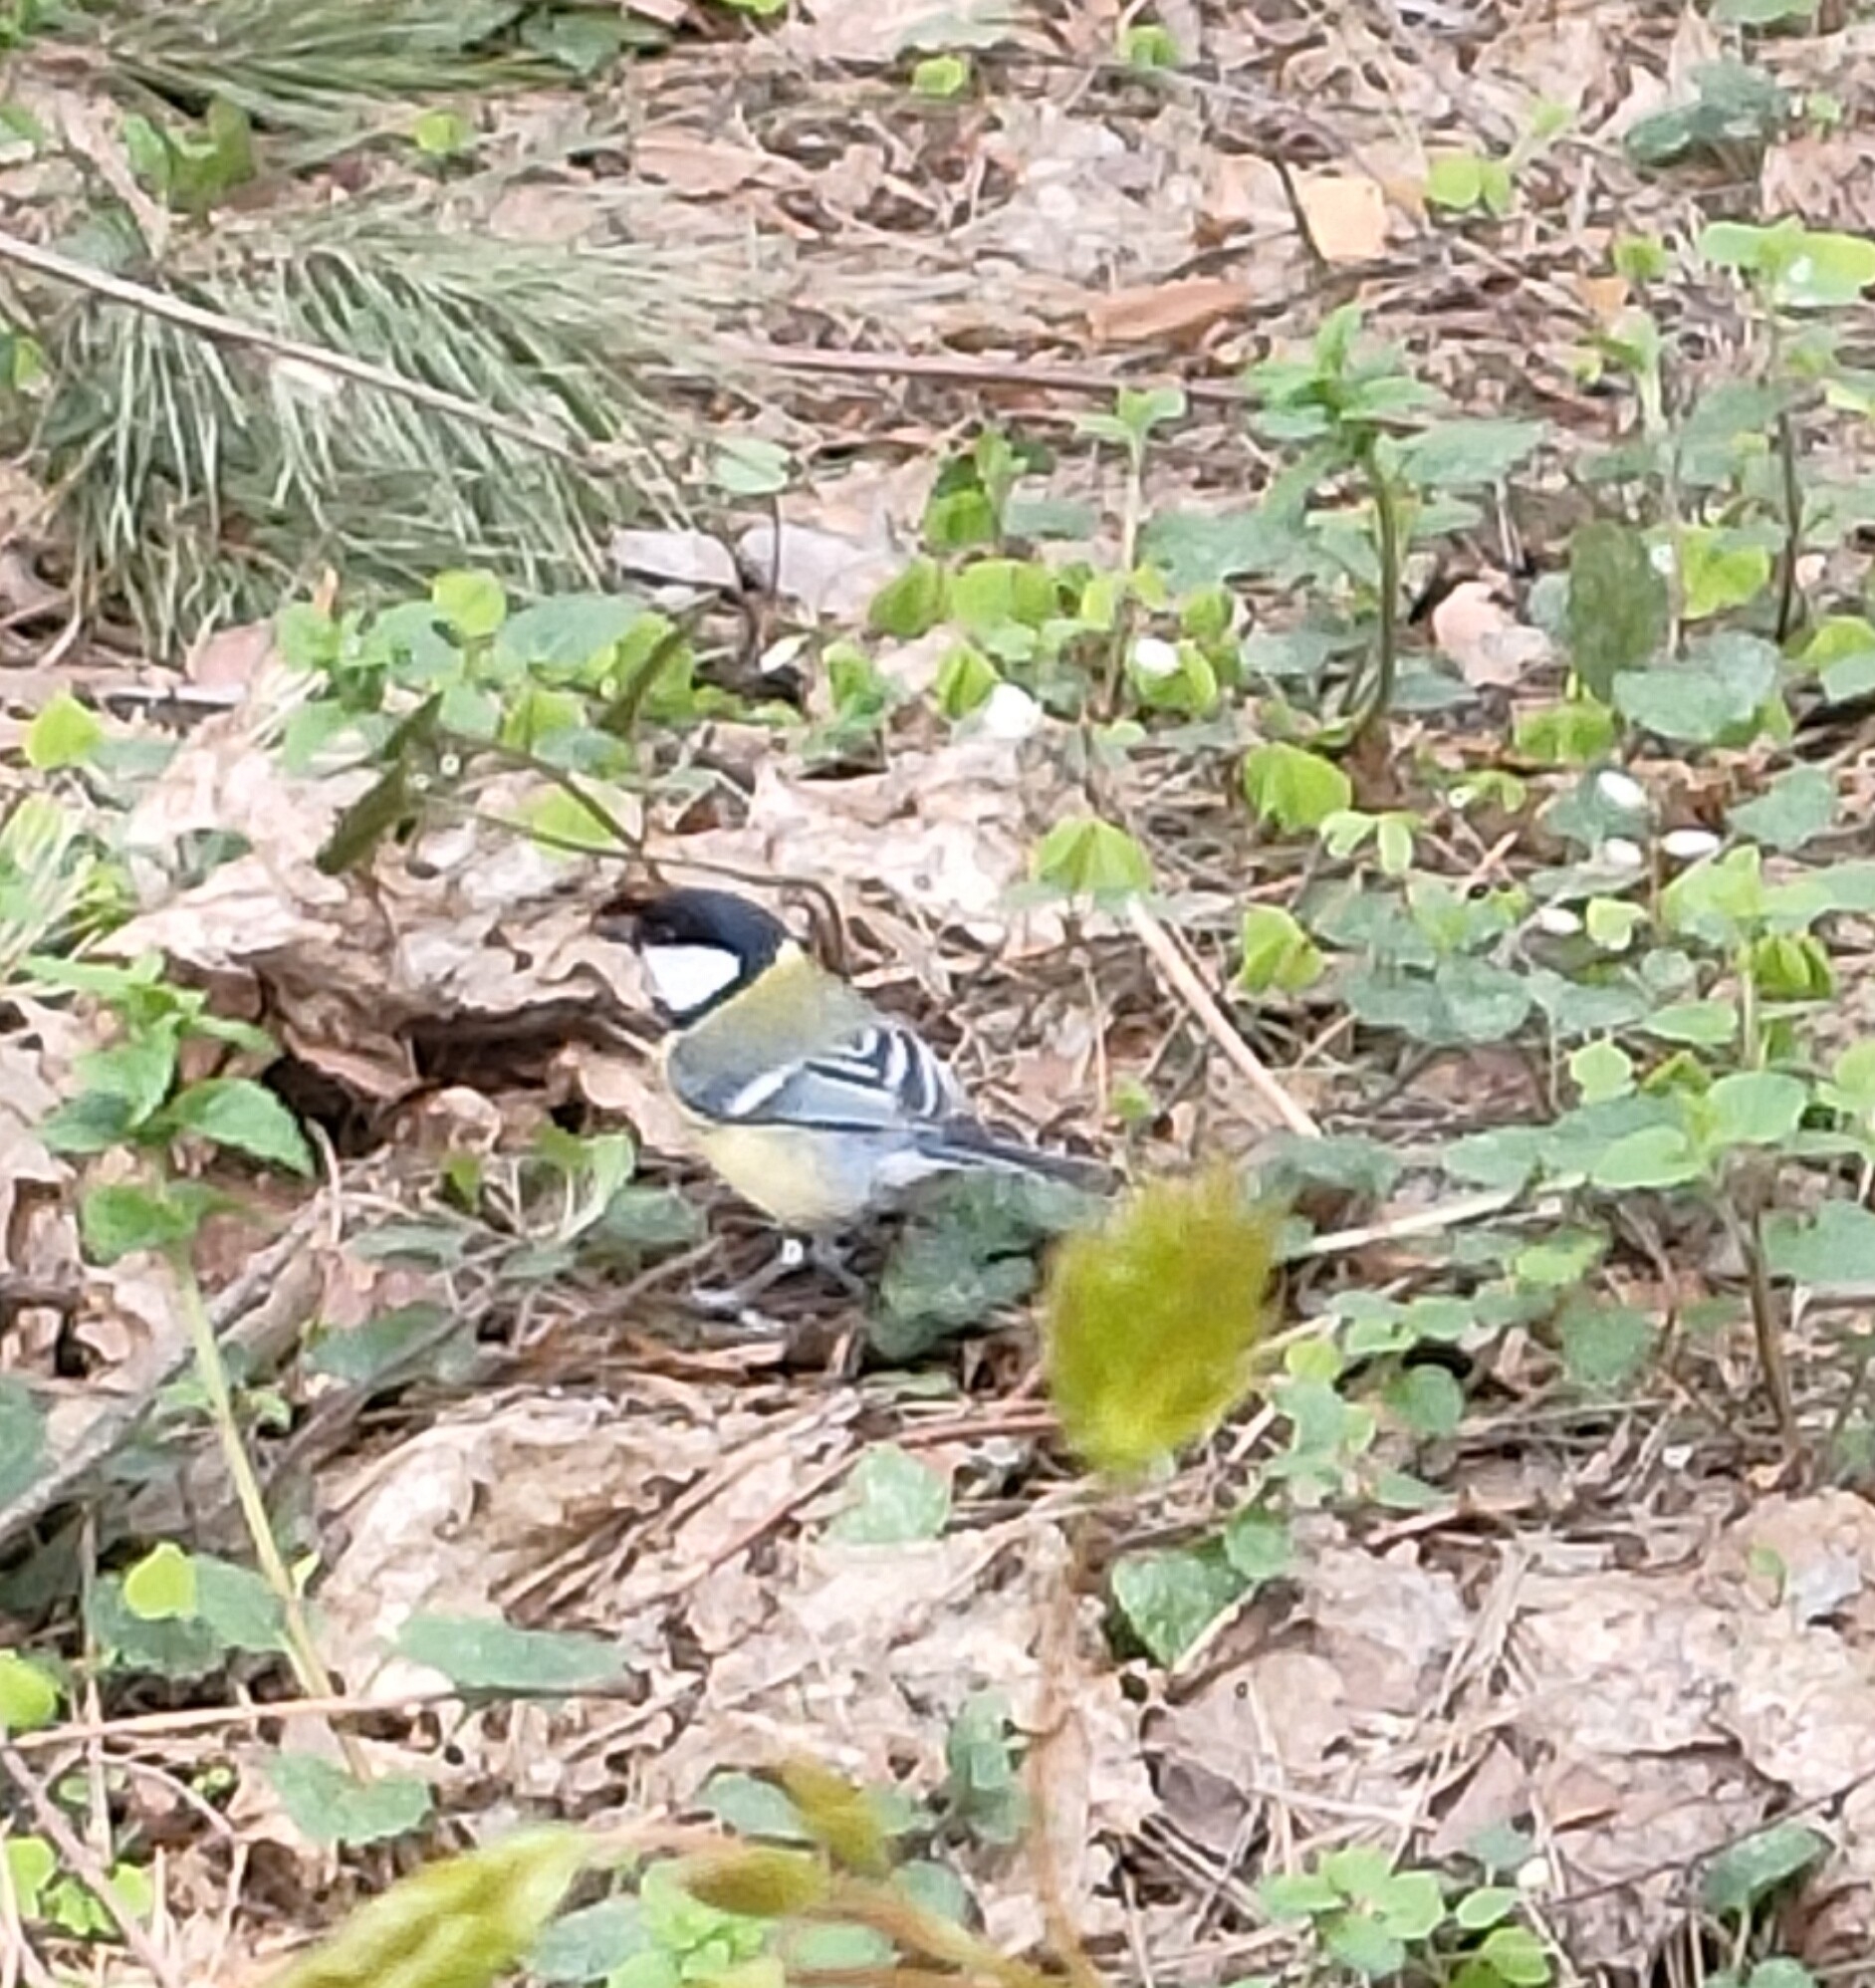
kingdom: Animalia
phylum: Chordata
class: Aves
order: Passeriformes
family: Paridae
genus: Parus
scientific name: Parus major
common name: Great tit
